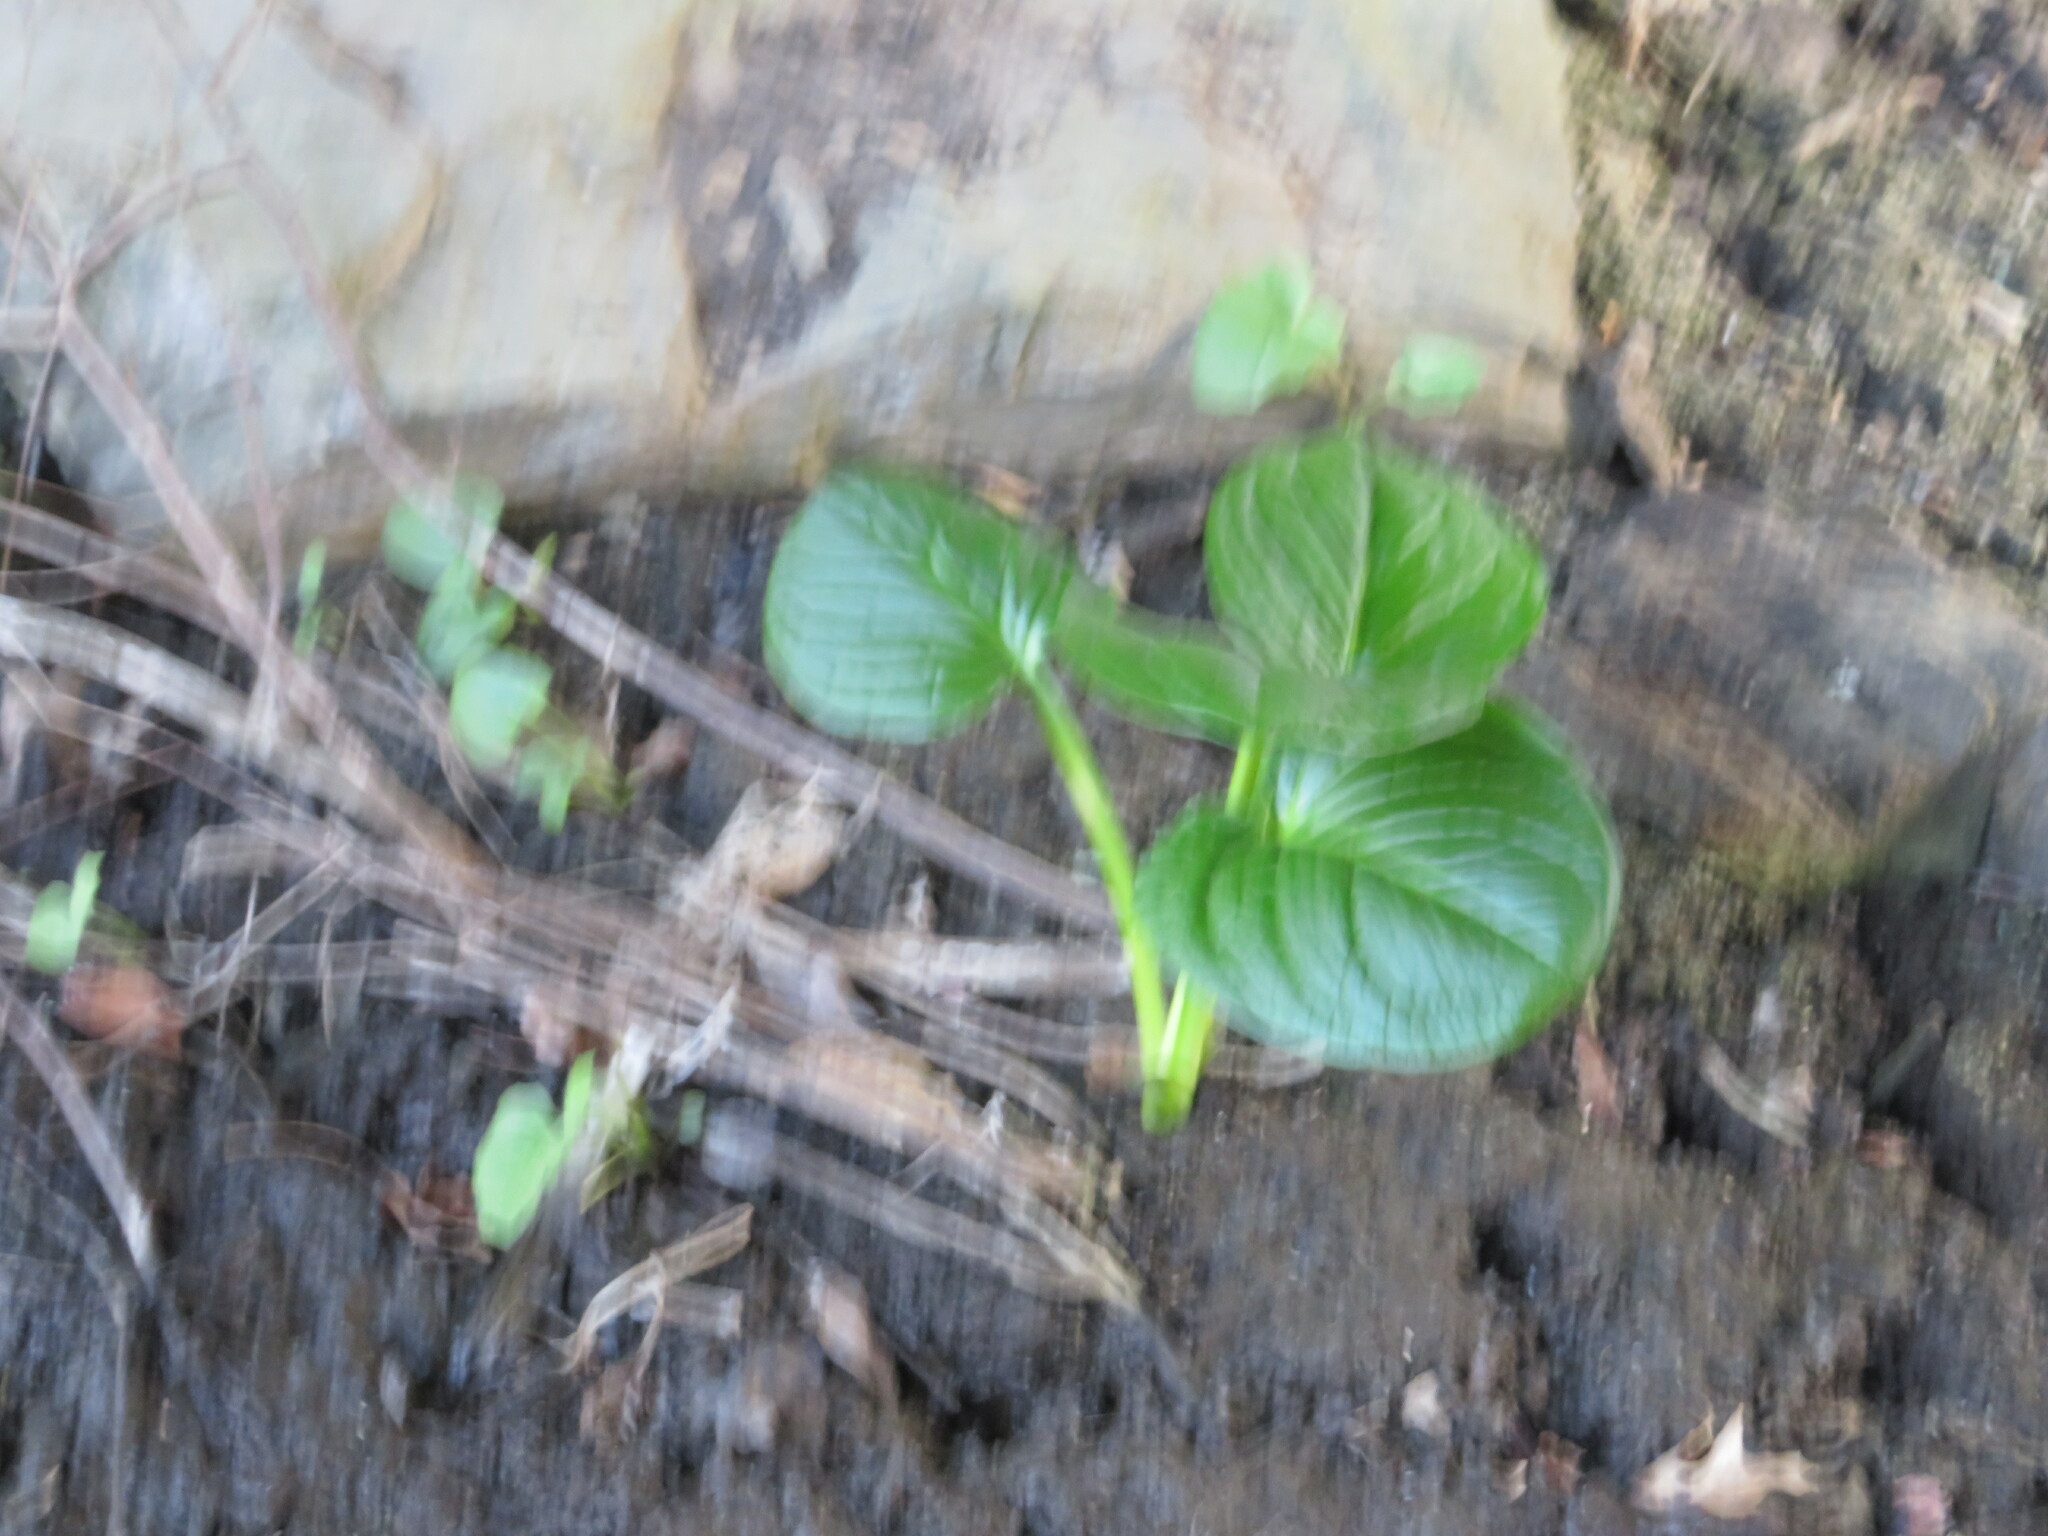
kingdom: Plantae
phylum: Tracheophyta
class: Liliopsida
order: Alismatales
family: Araceae
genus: Symplocarpus
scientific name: Symplocarpus foetidus
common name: Eastern skunk cabbage
